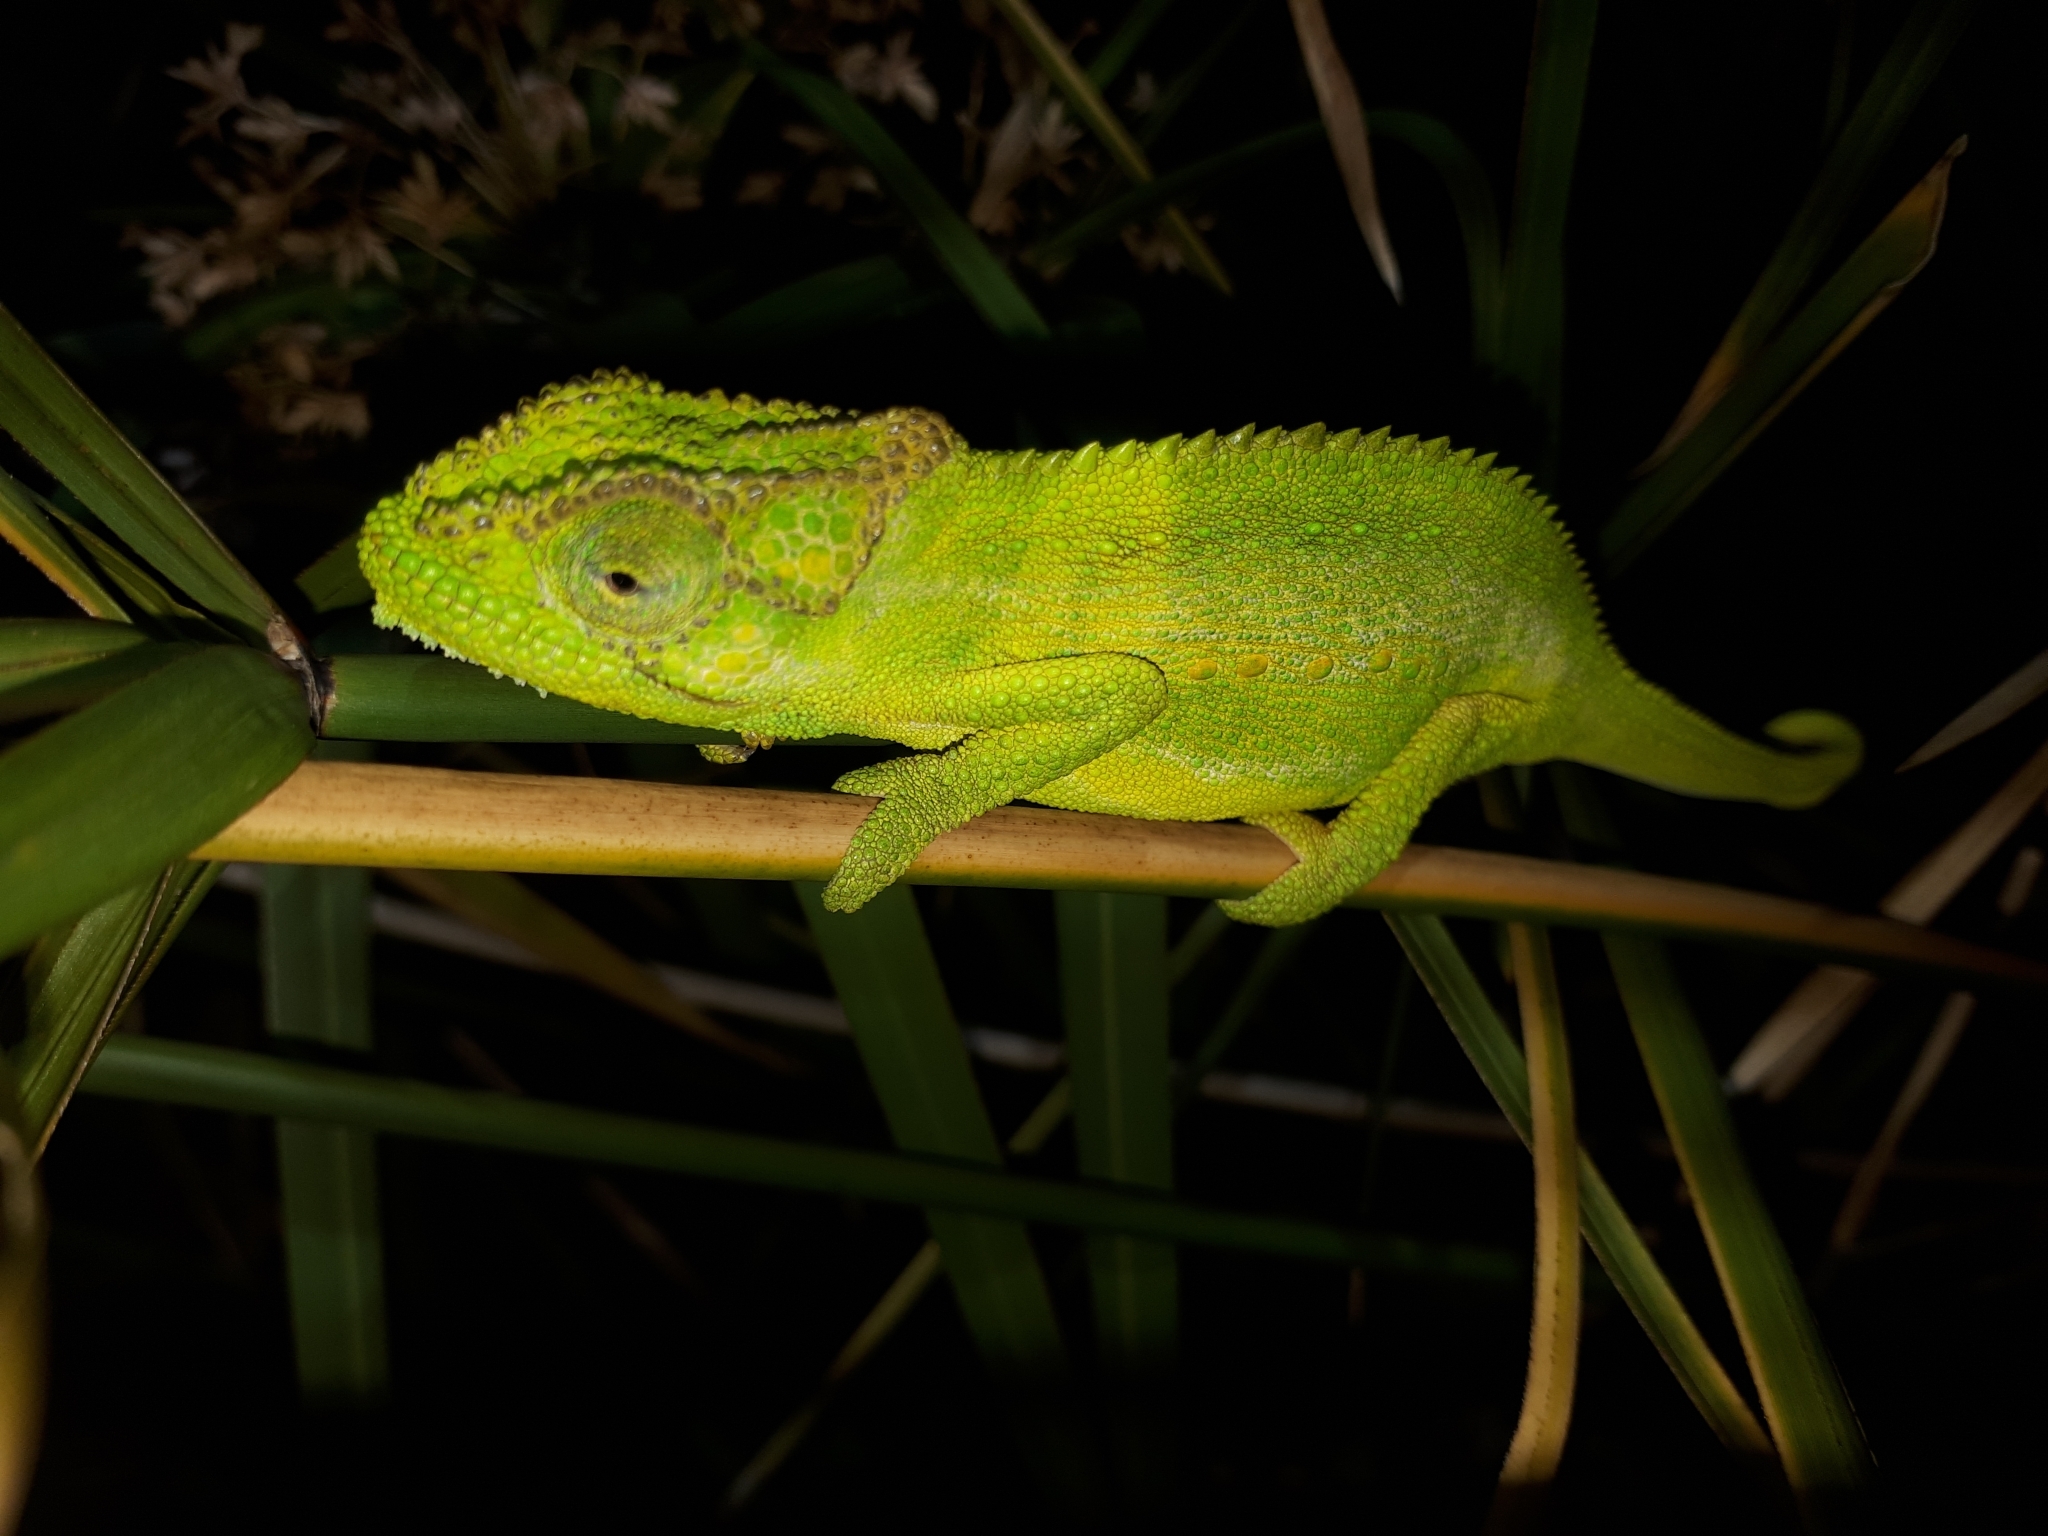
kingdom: Animalia
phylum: Chordata
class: Squamata
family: Chamaeleonidae
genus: Bradypodion
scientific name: Bradypodion pumilum
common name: Cape dwarf chameleon
